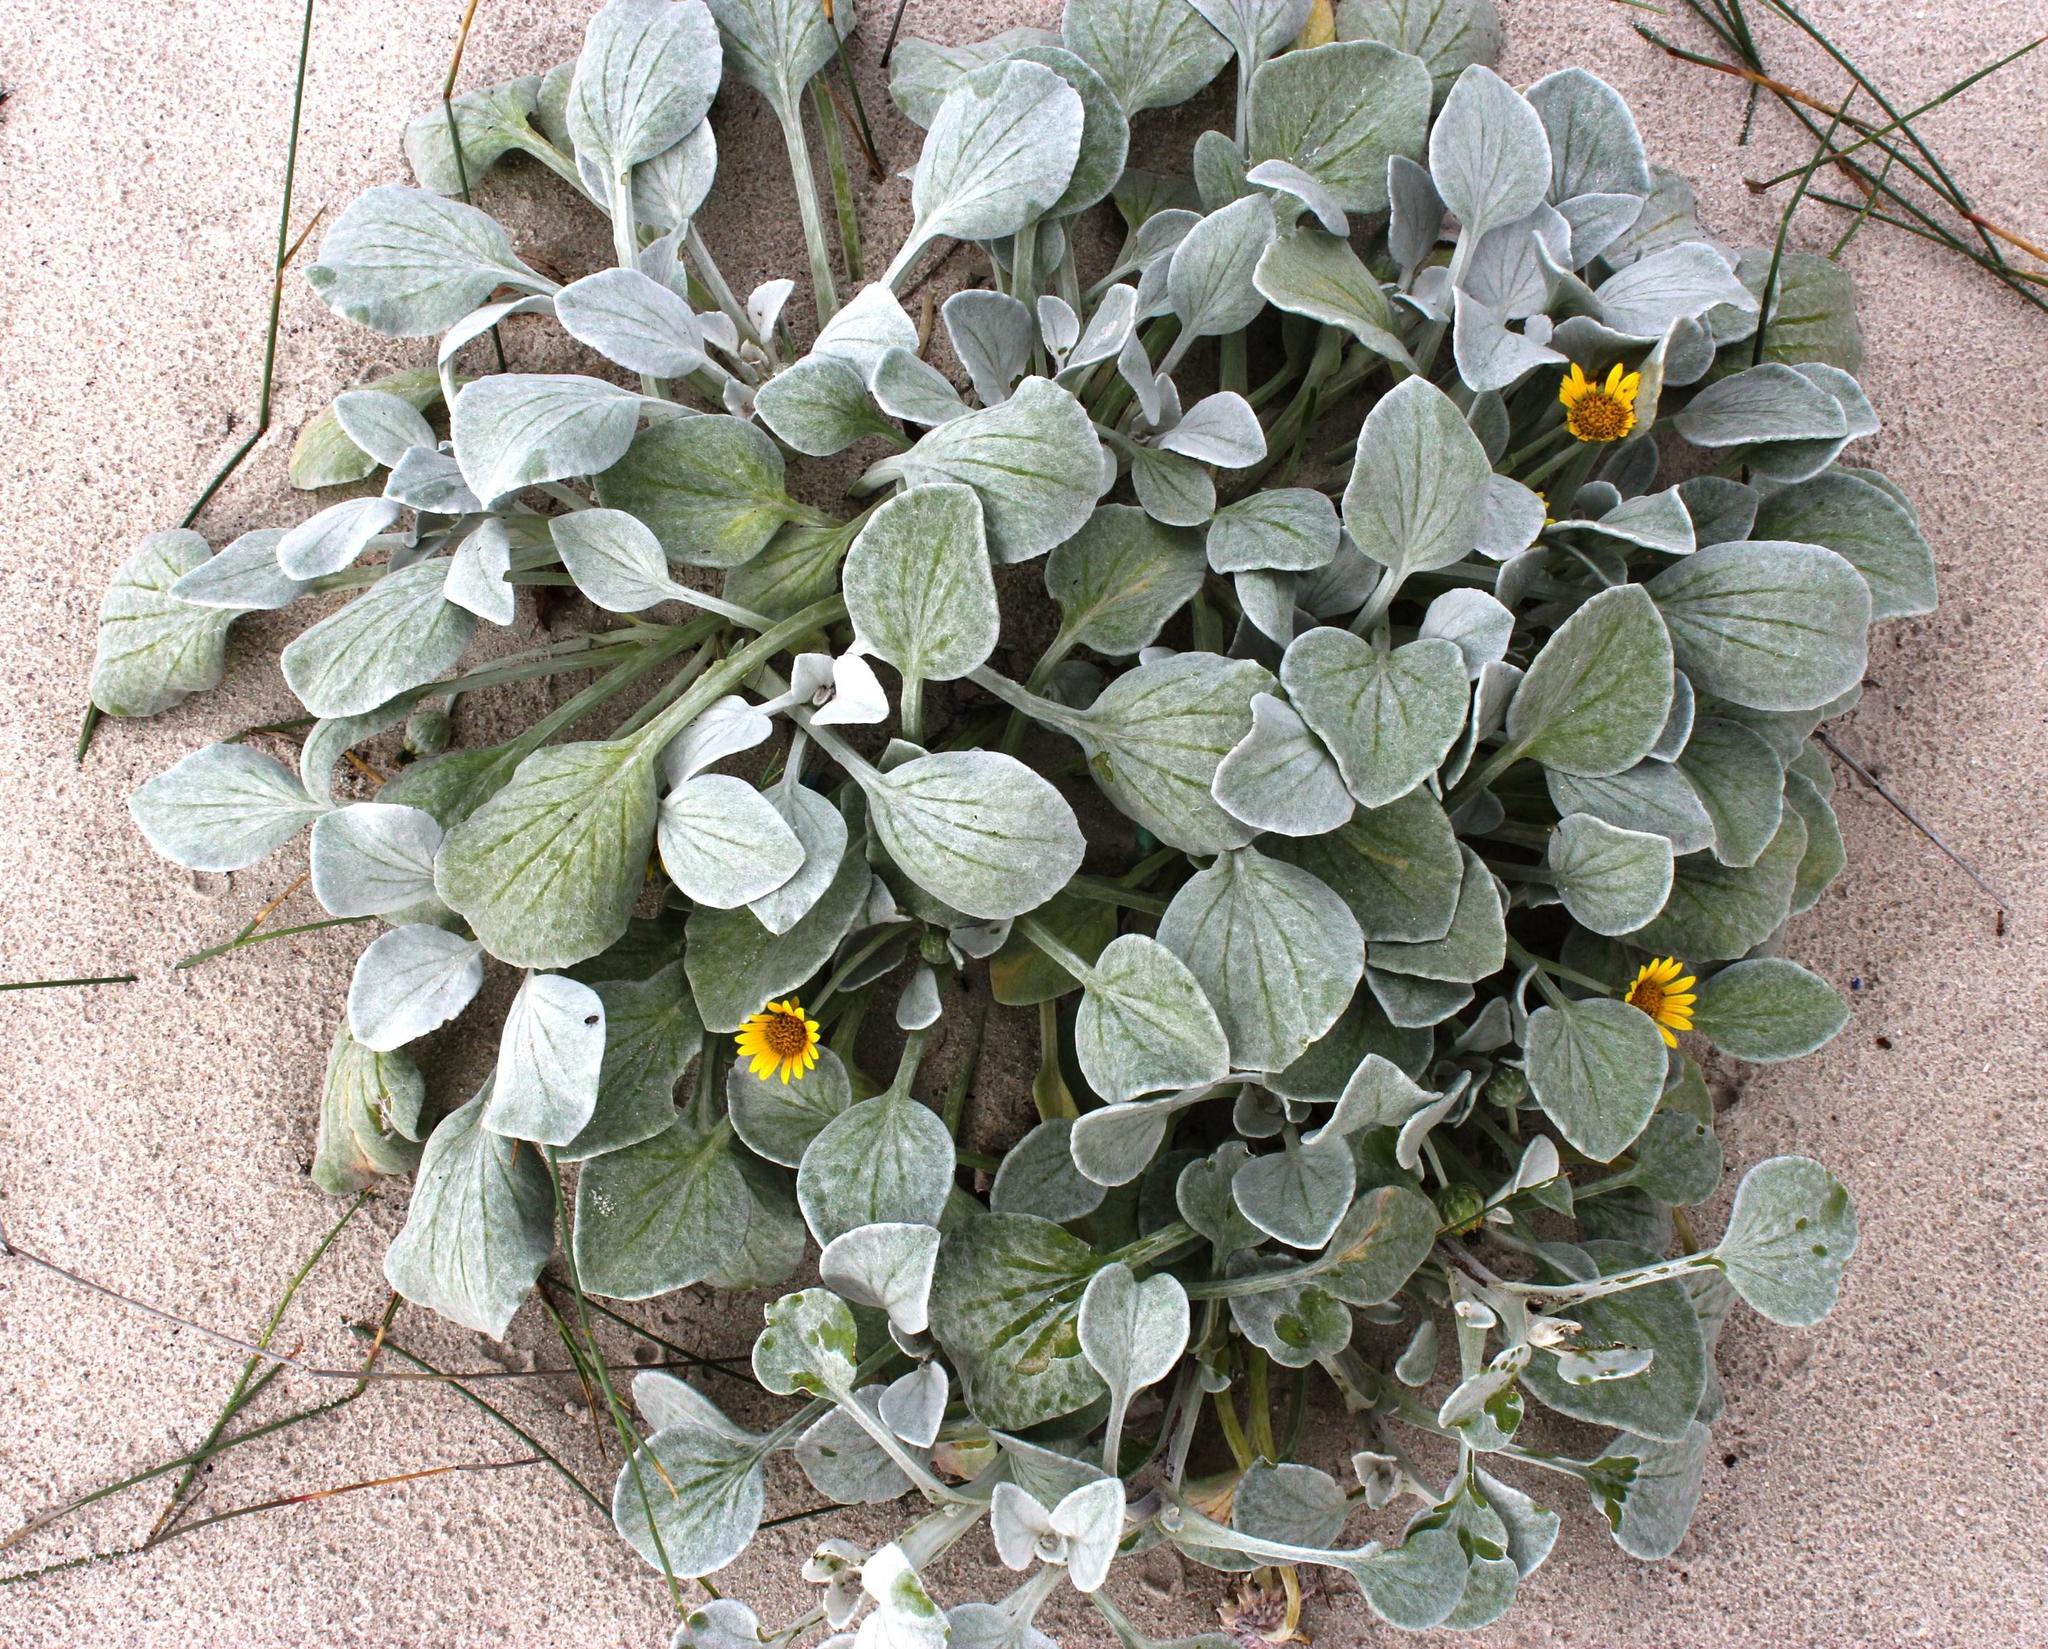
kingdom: Plantae
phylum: Tracheophyta
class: Magnoliopsida
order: Asterales
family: Asteraceae
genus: Arctotheca
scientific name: Arctotheca populifolia
